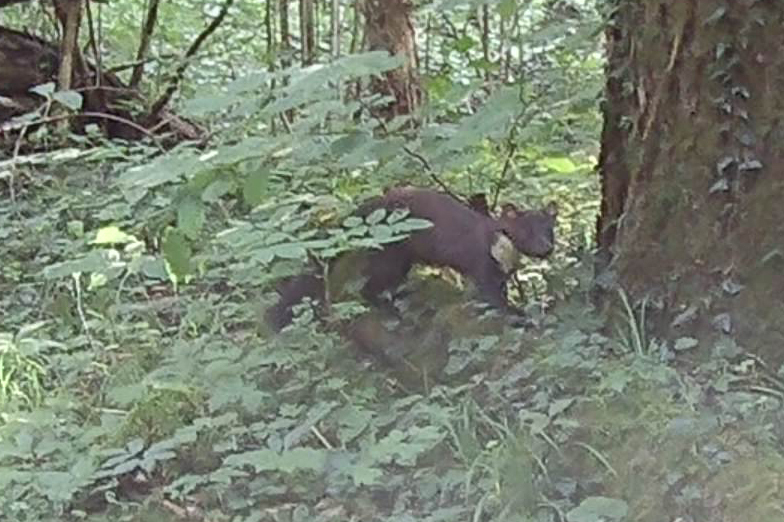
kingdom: Animalia
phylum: Chordata
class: Mammalia
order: Carnivora
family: Mustelidae
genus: Martes
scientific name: Martes martes
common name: European pine marten
